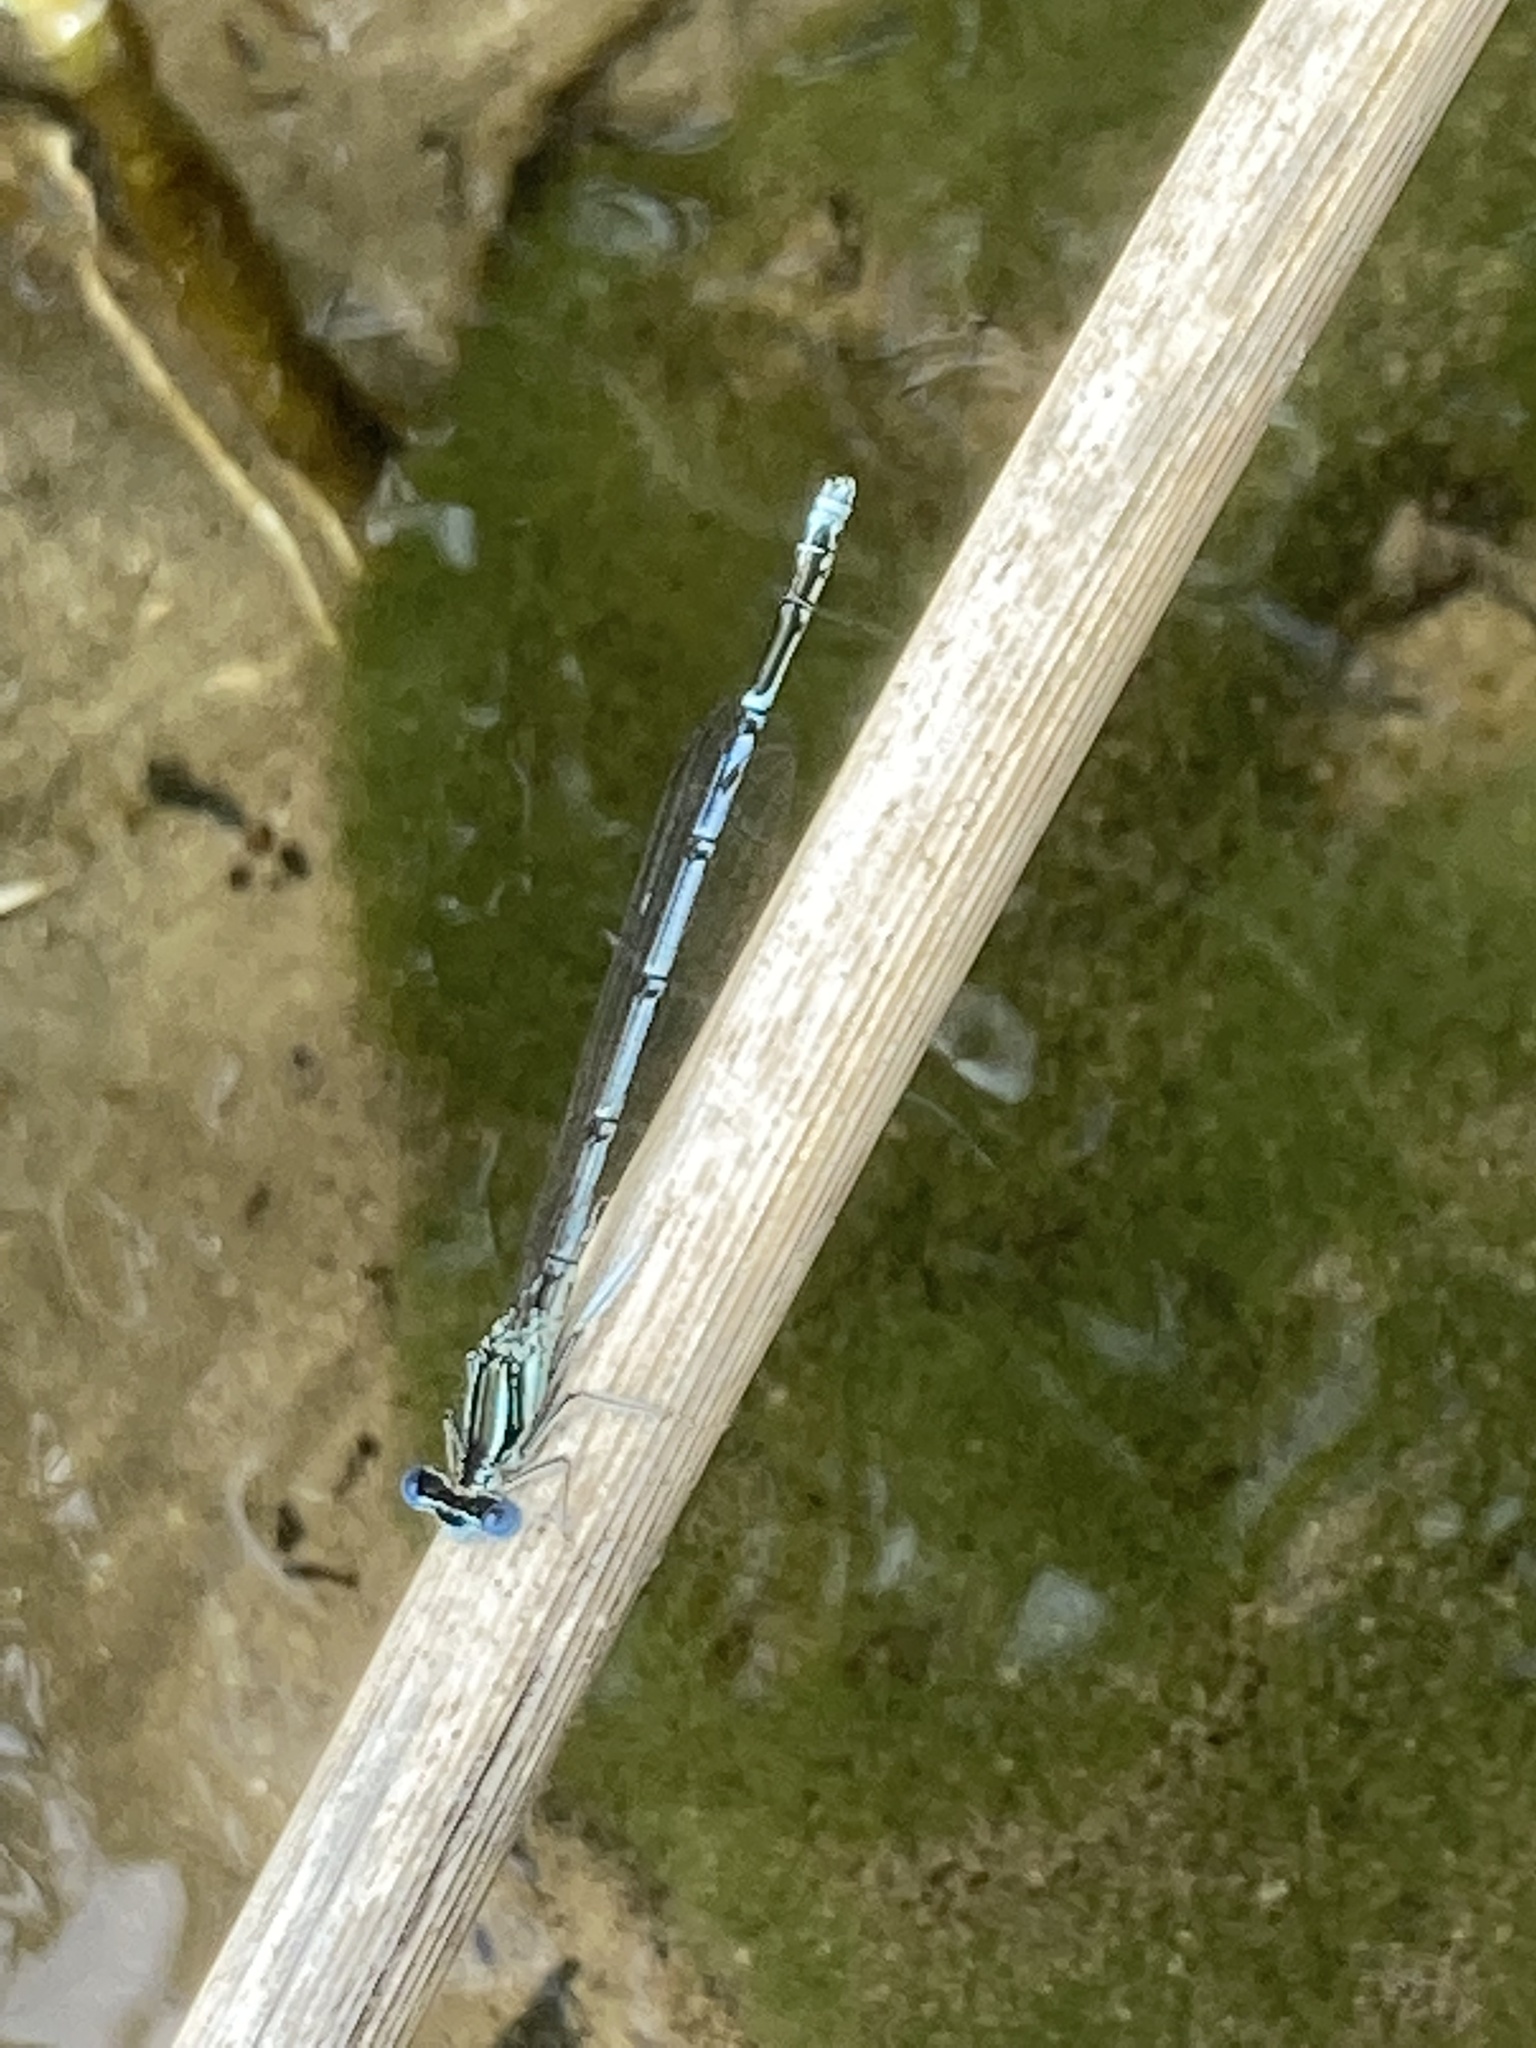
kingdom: Animalia
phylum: Arthropoda
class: Insecta
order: Odonata
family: Platycnemididae
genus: Platycnemis
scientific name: Platycnemis pennipes
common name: White-legged damselfly
